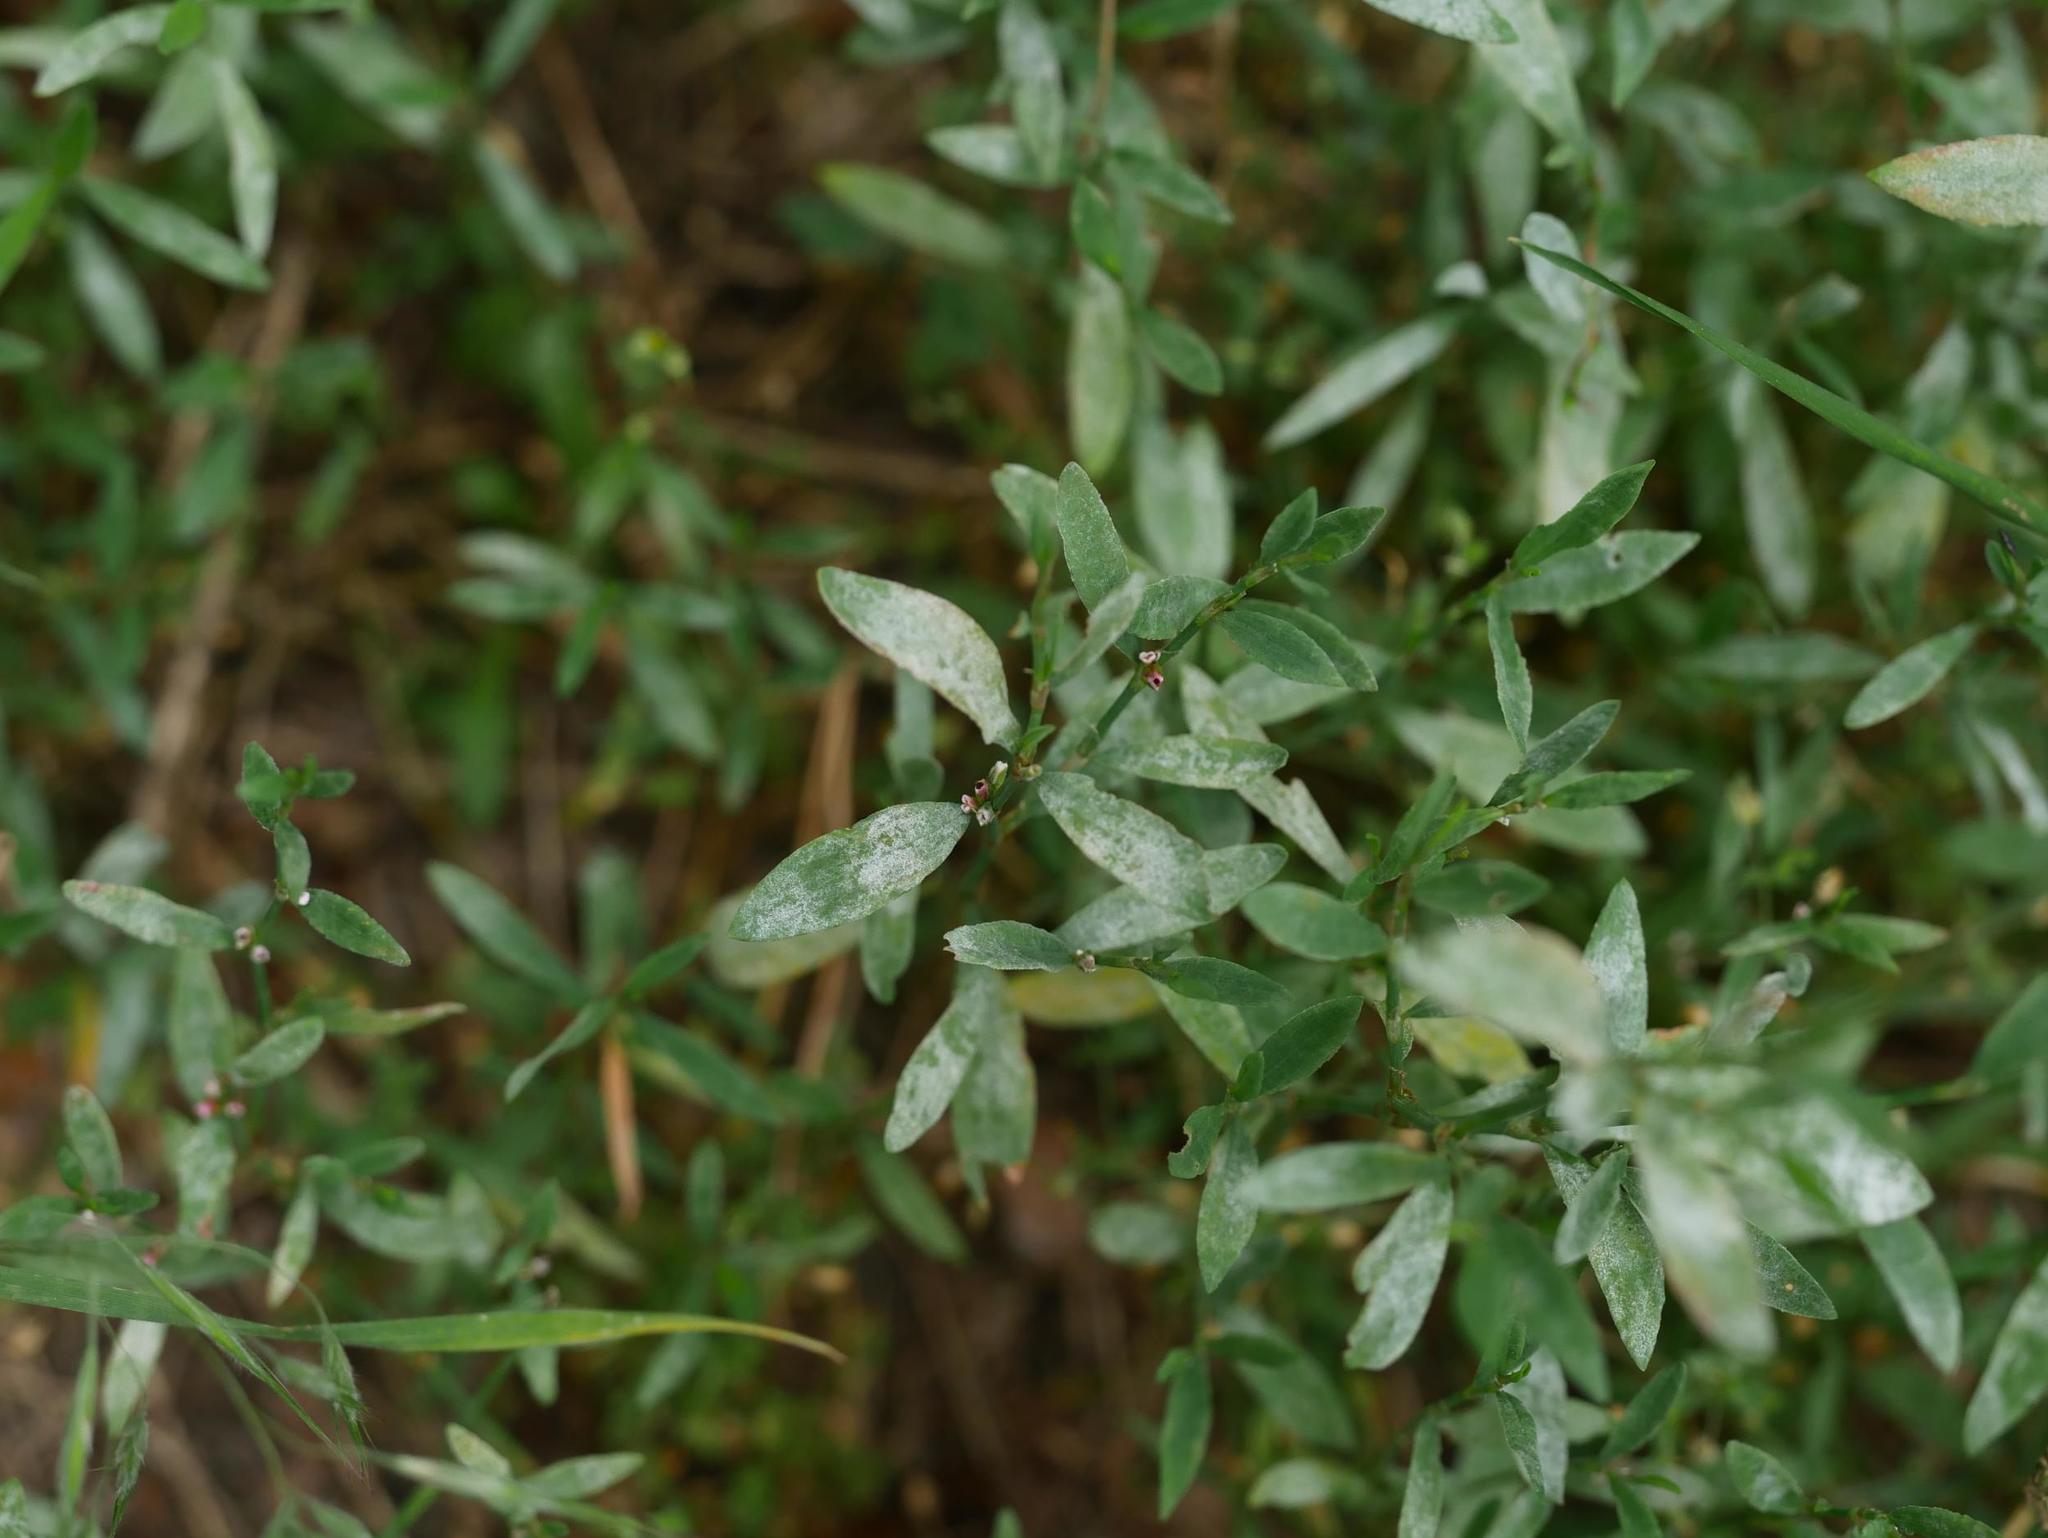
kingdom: Plantae
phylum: Tracheophyta
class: Magnoliopsida
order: Caryophyllales
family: Polygonaceae
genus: Polygonum
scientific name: Polygonum aviculare
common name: Prostrate knotweed
